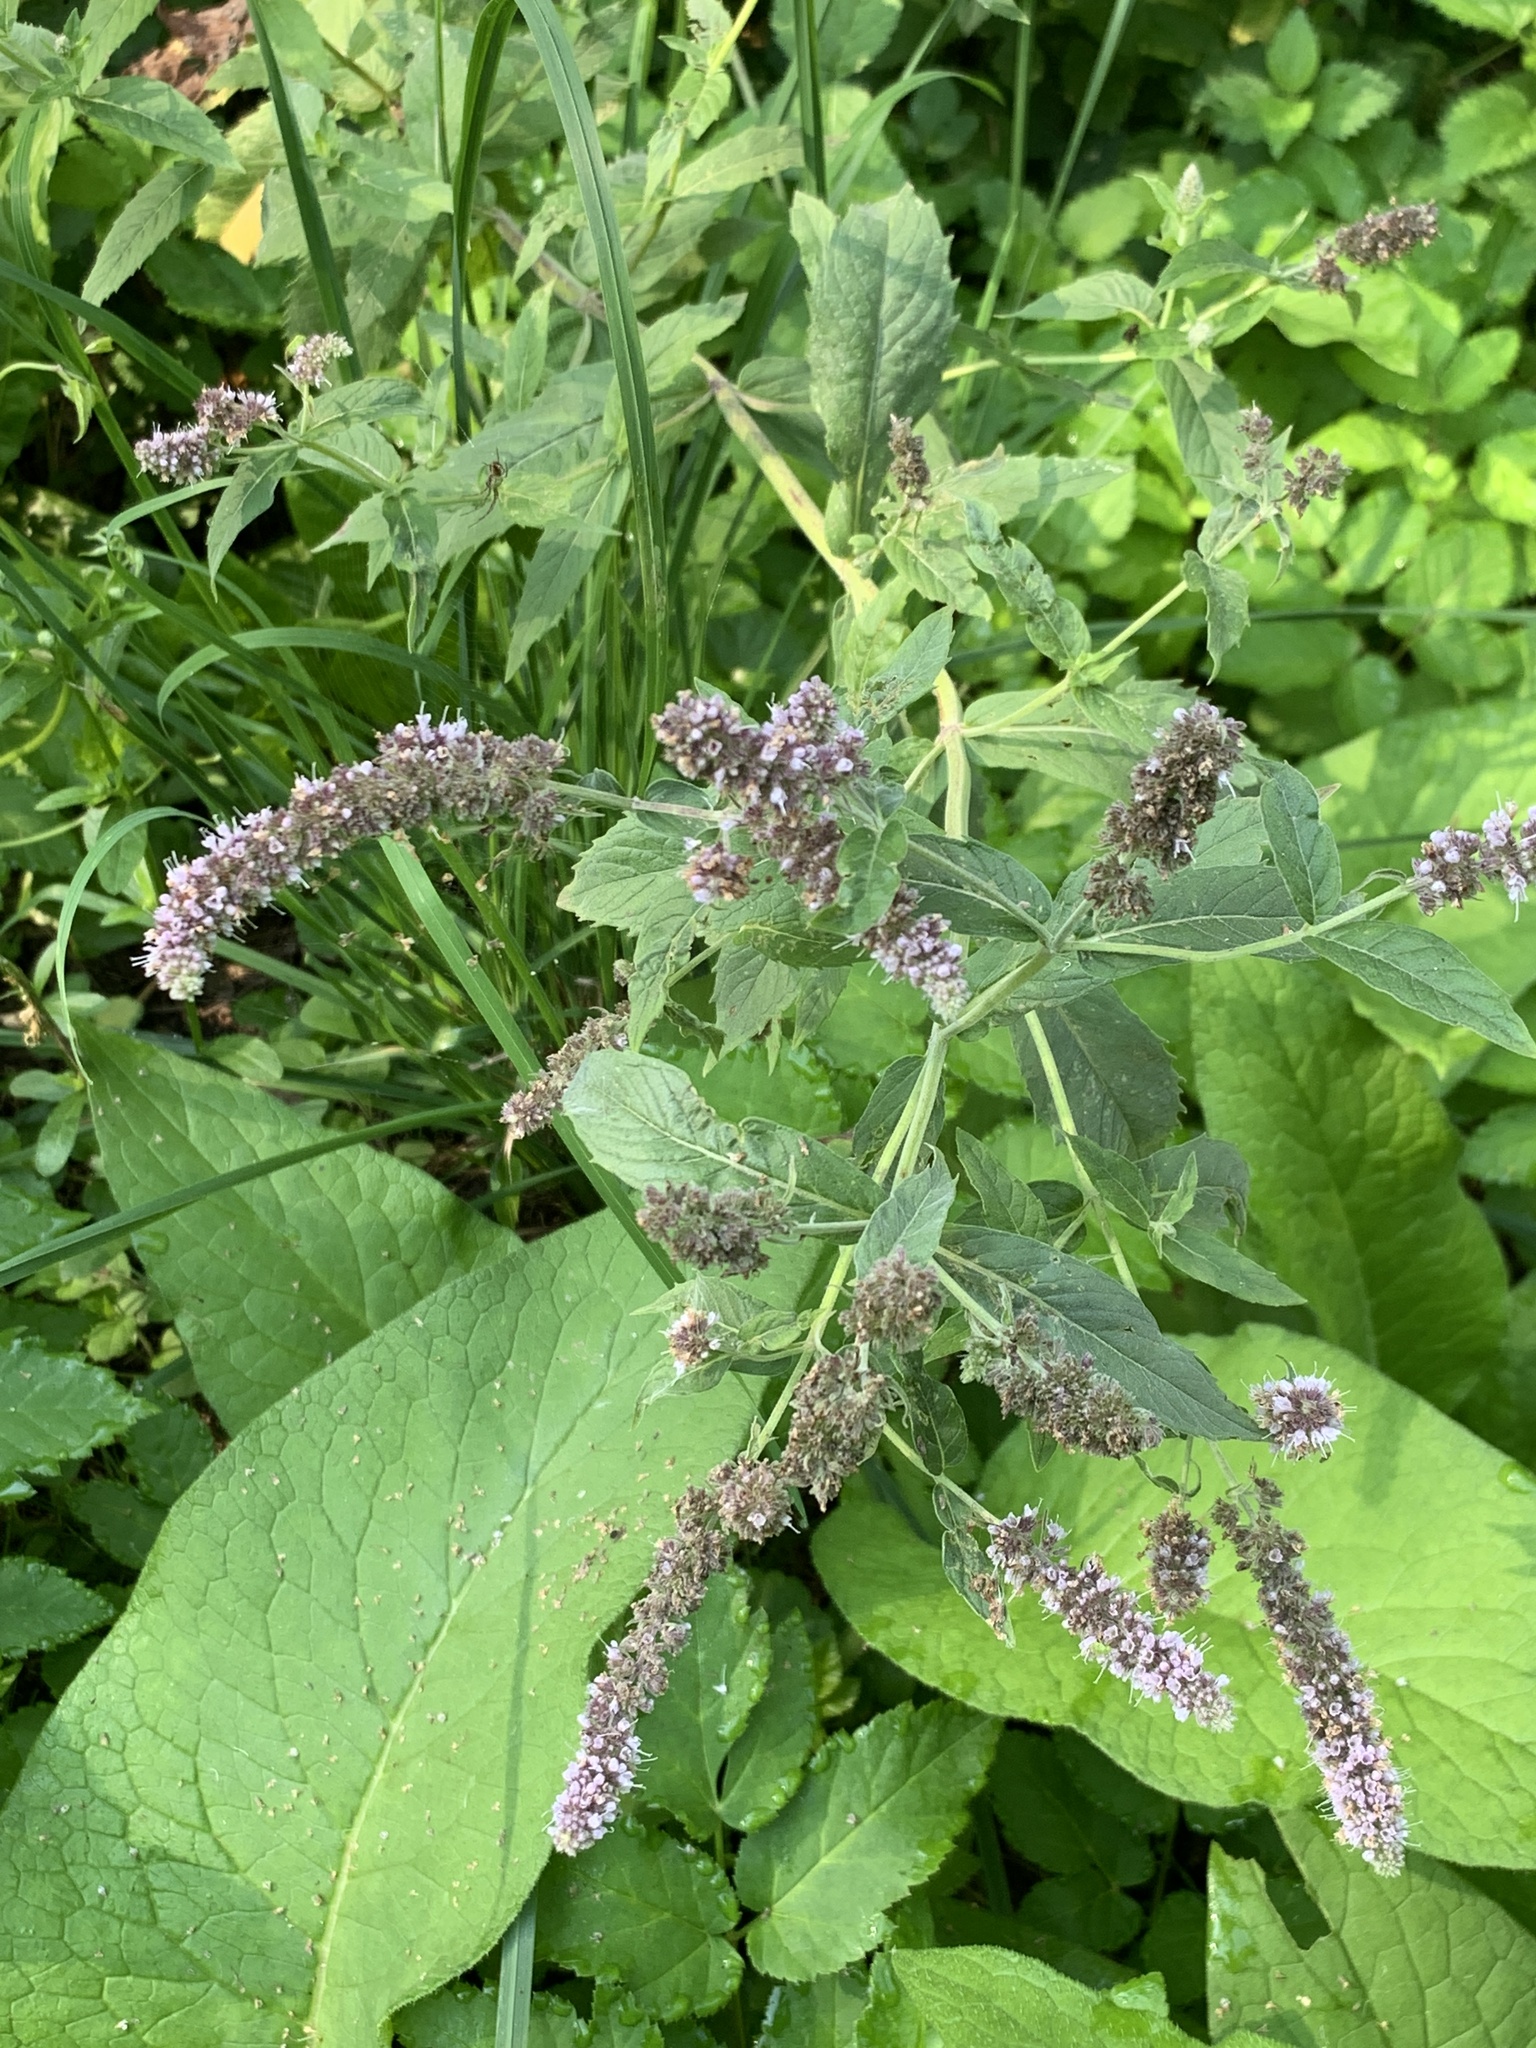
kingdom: Plantae
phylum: Tracheophyta
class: Magnoliopsida
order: Lamiales
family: Lamiaceae
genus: Mentha
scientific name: Mentha longifolia
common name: Horse mint
